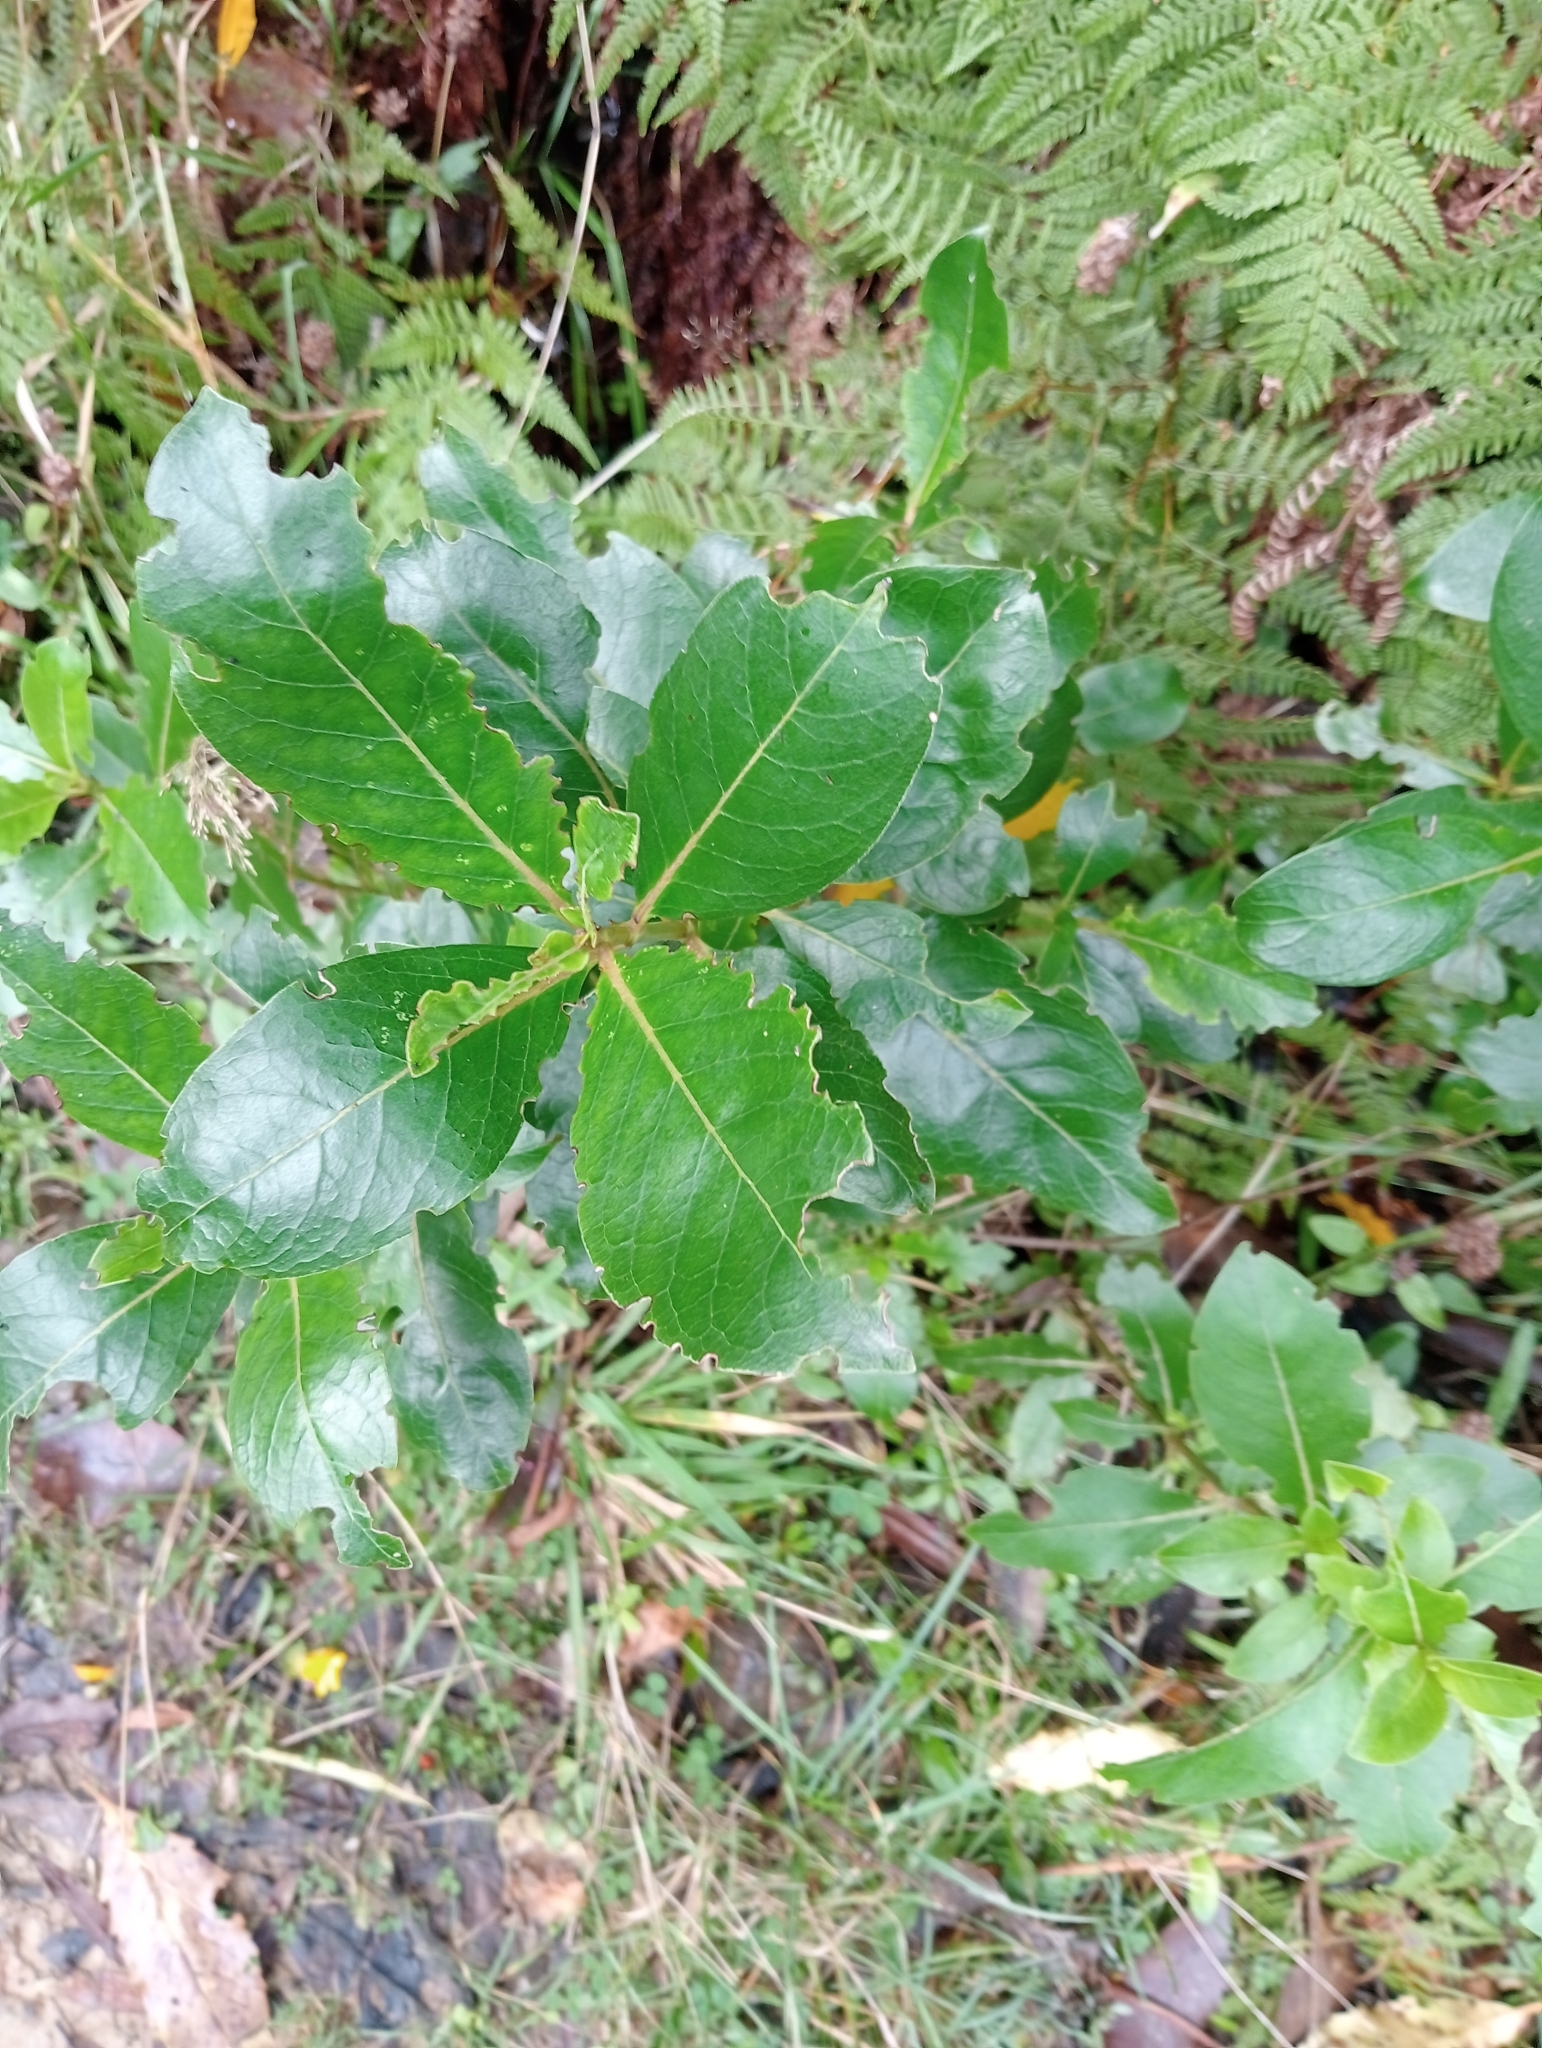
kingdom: Plantae
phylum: Tracheophyta
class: Magnoliopsida
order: Gentianales
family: Rubiaceae
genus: Coprosma
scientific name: Coprosma robusta
